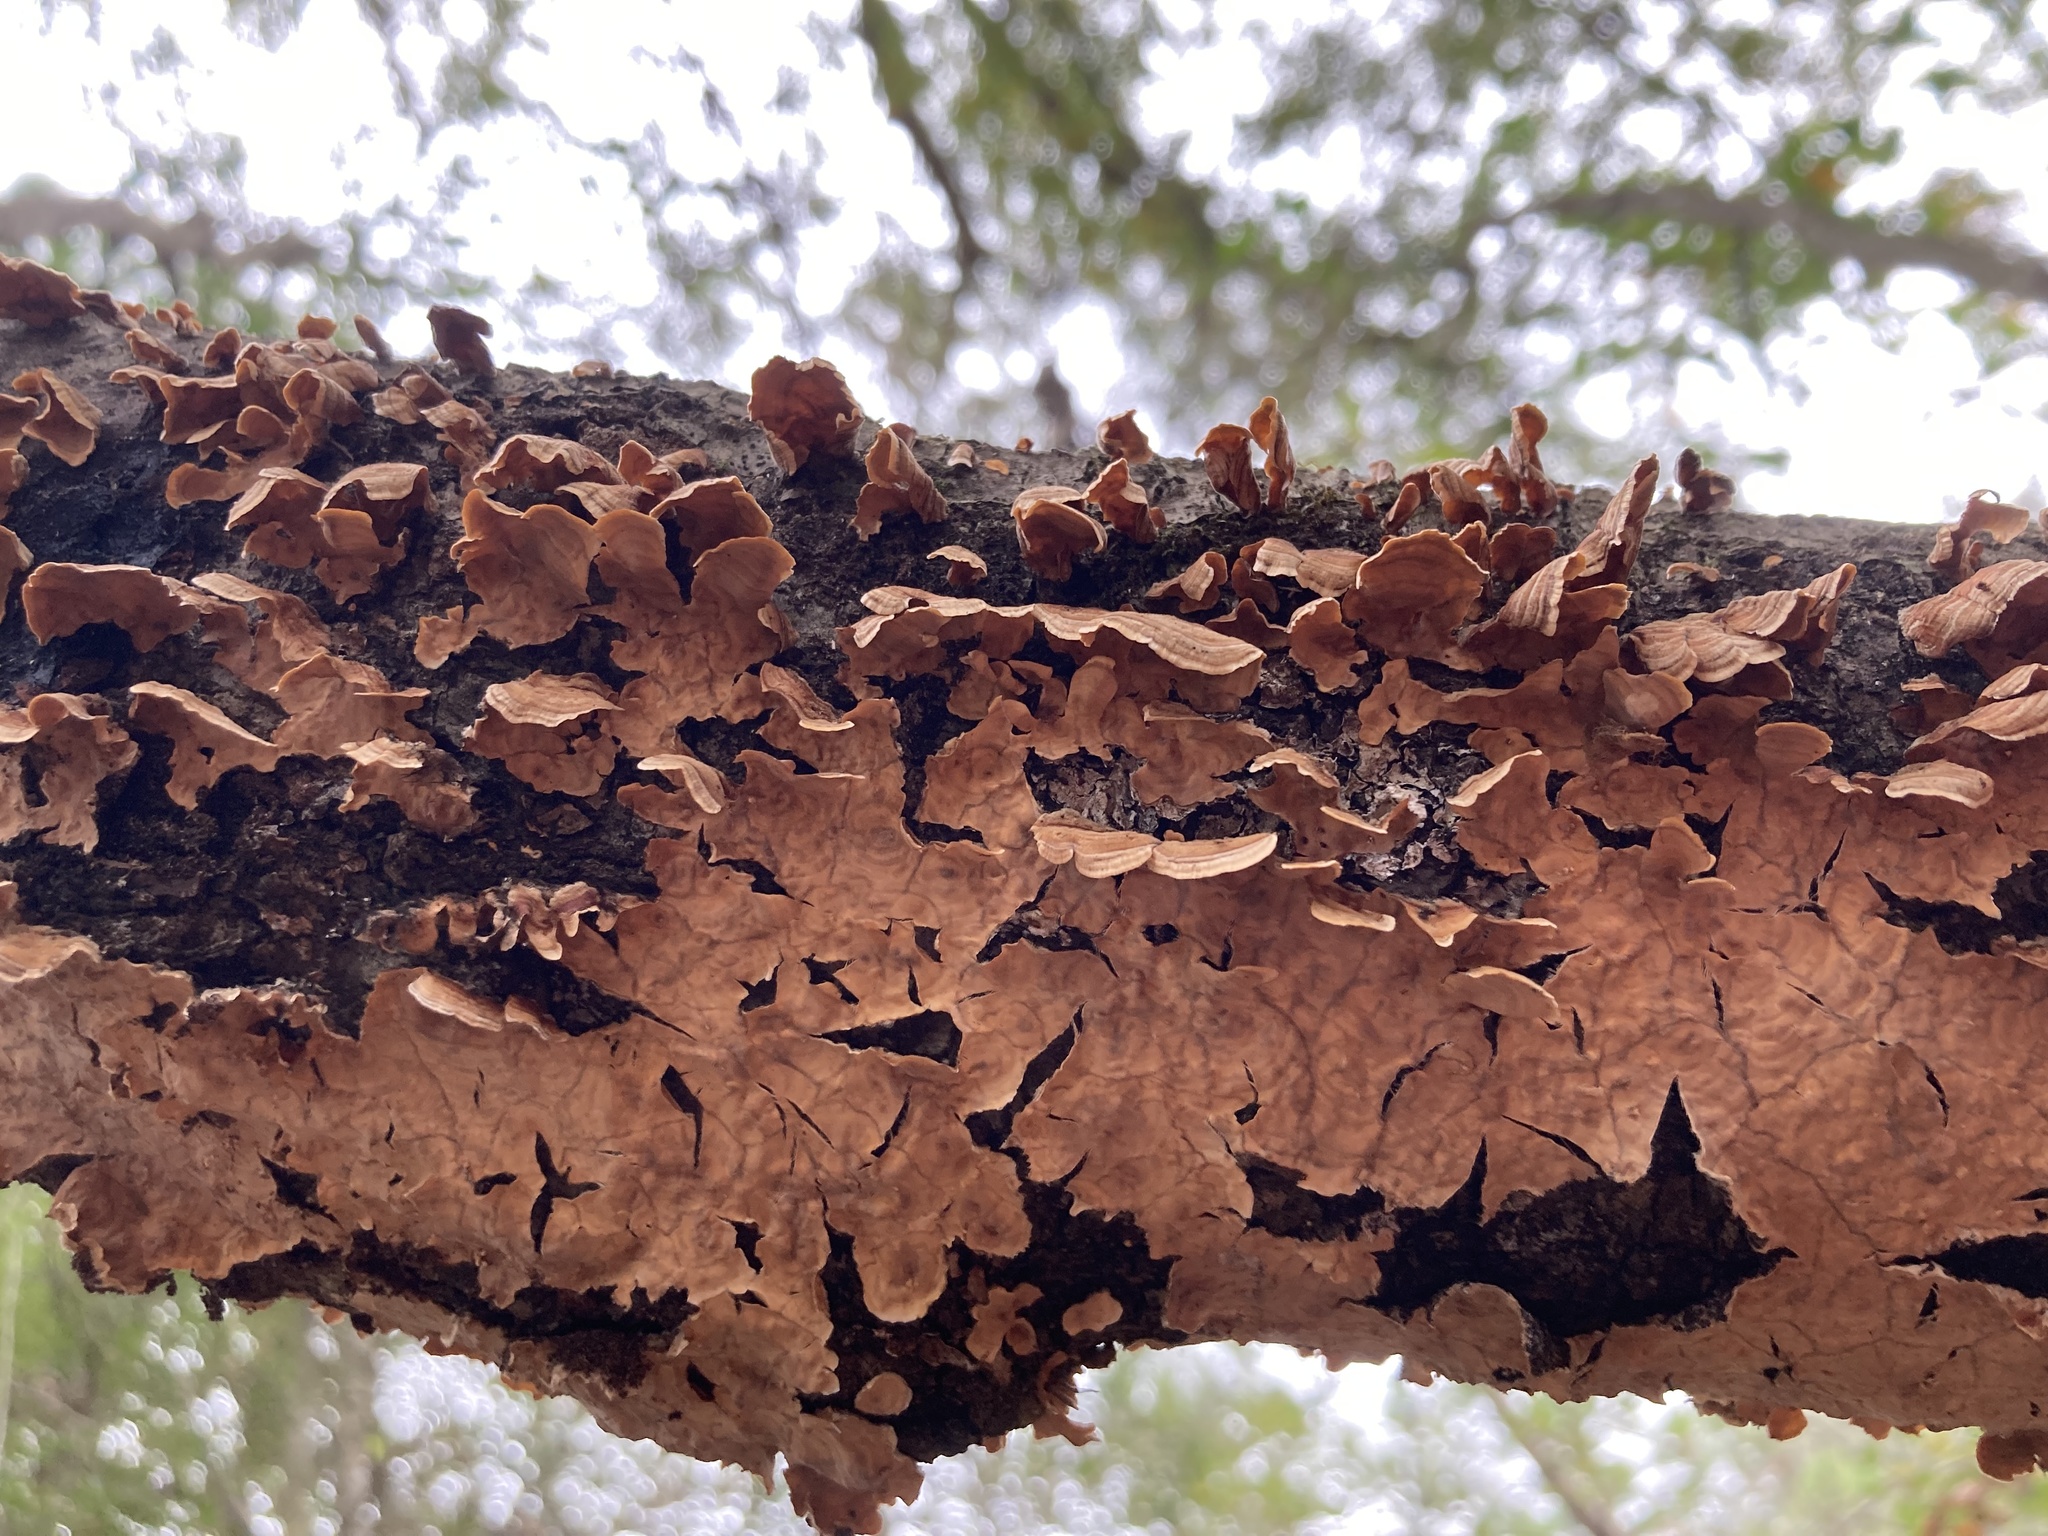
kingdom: Fungi
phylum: Basidiomycota
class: Agaricomycetes
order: Russulales
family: Stereaceae
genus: Stereum
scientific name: Stereum complicatum
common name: Crowded parchment
